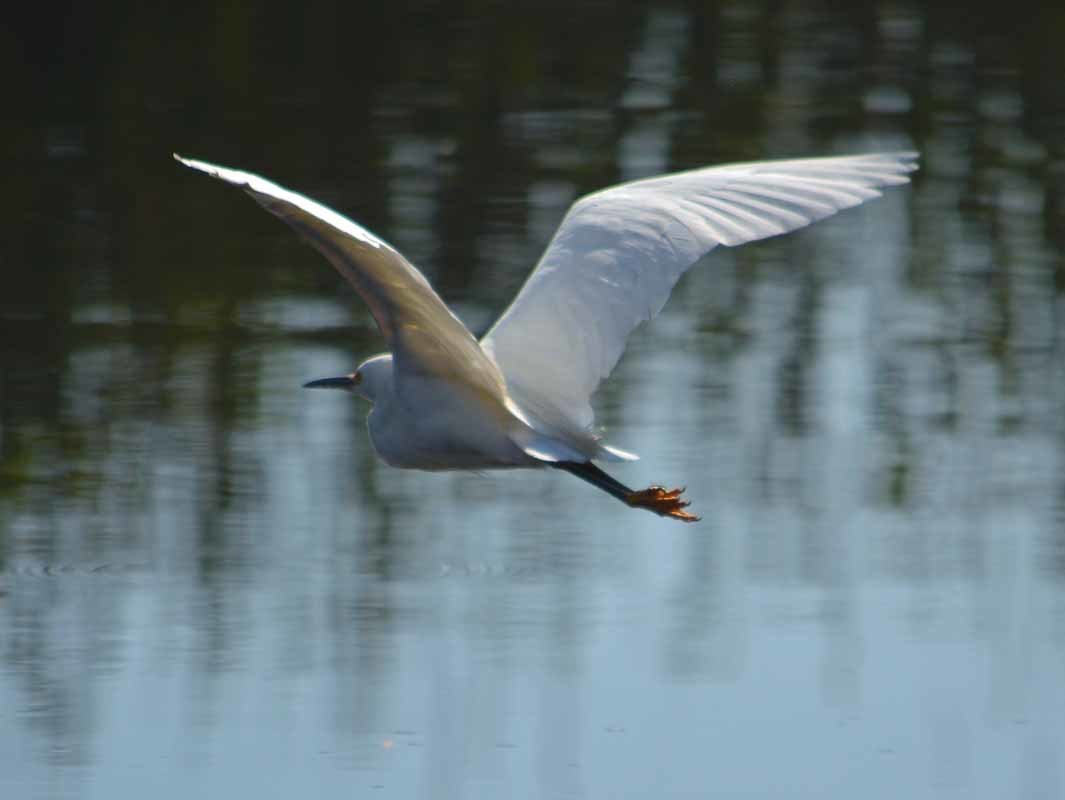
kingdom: Animalia
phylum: Chordata
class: Aves
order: Pelecaniformes
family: Ardeidae
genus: Egretta
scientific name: Egretta thula
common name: Snowy egret
